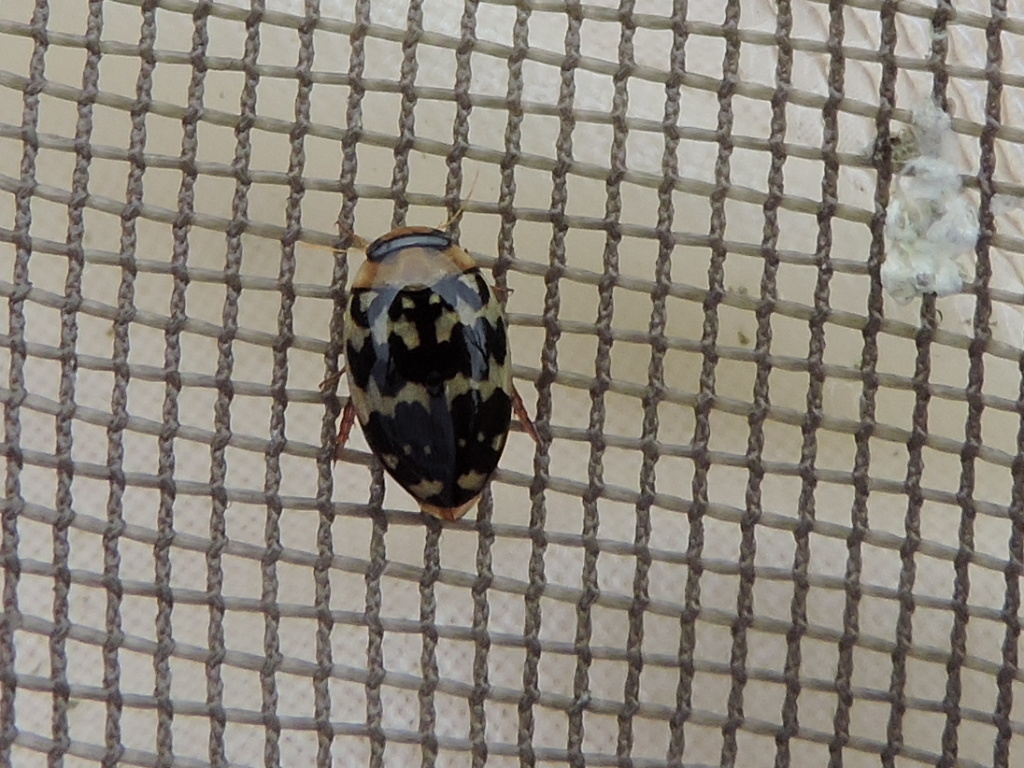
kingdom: Animalia
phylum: Arthropoda
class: Insecta
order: Coleoptera
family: Dytiscidae
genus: Laccophilus
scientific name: Laccophilus pictus
